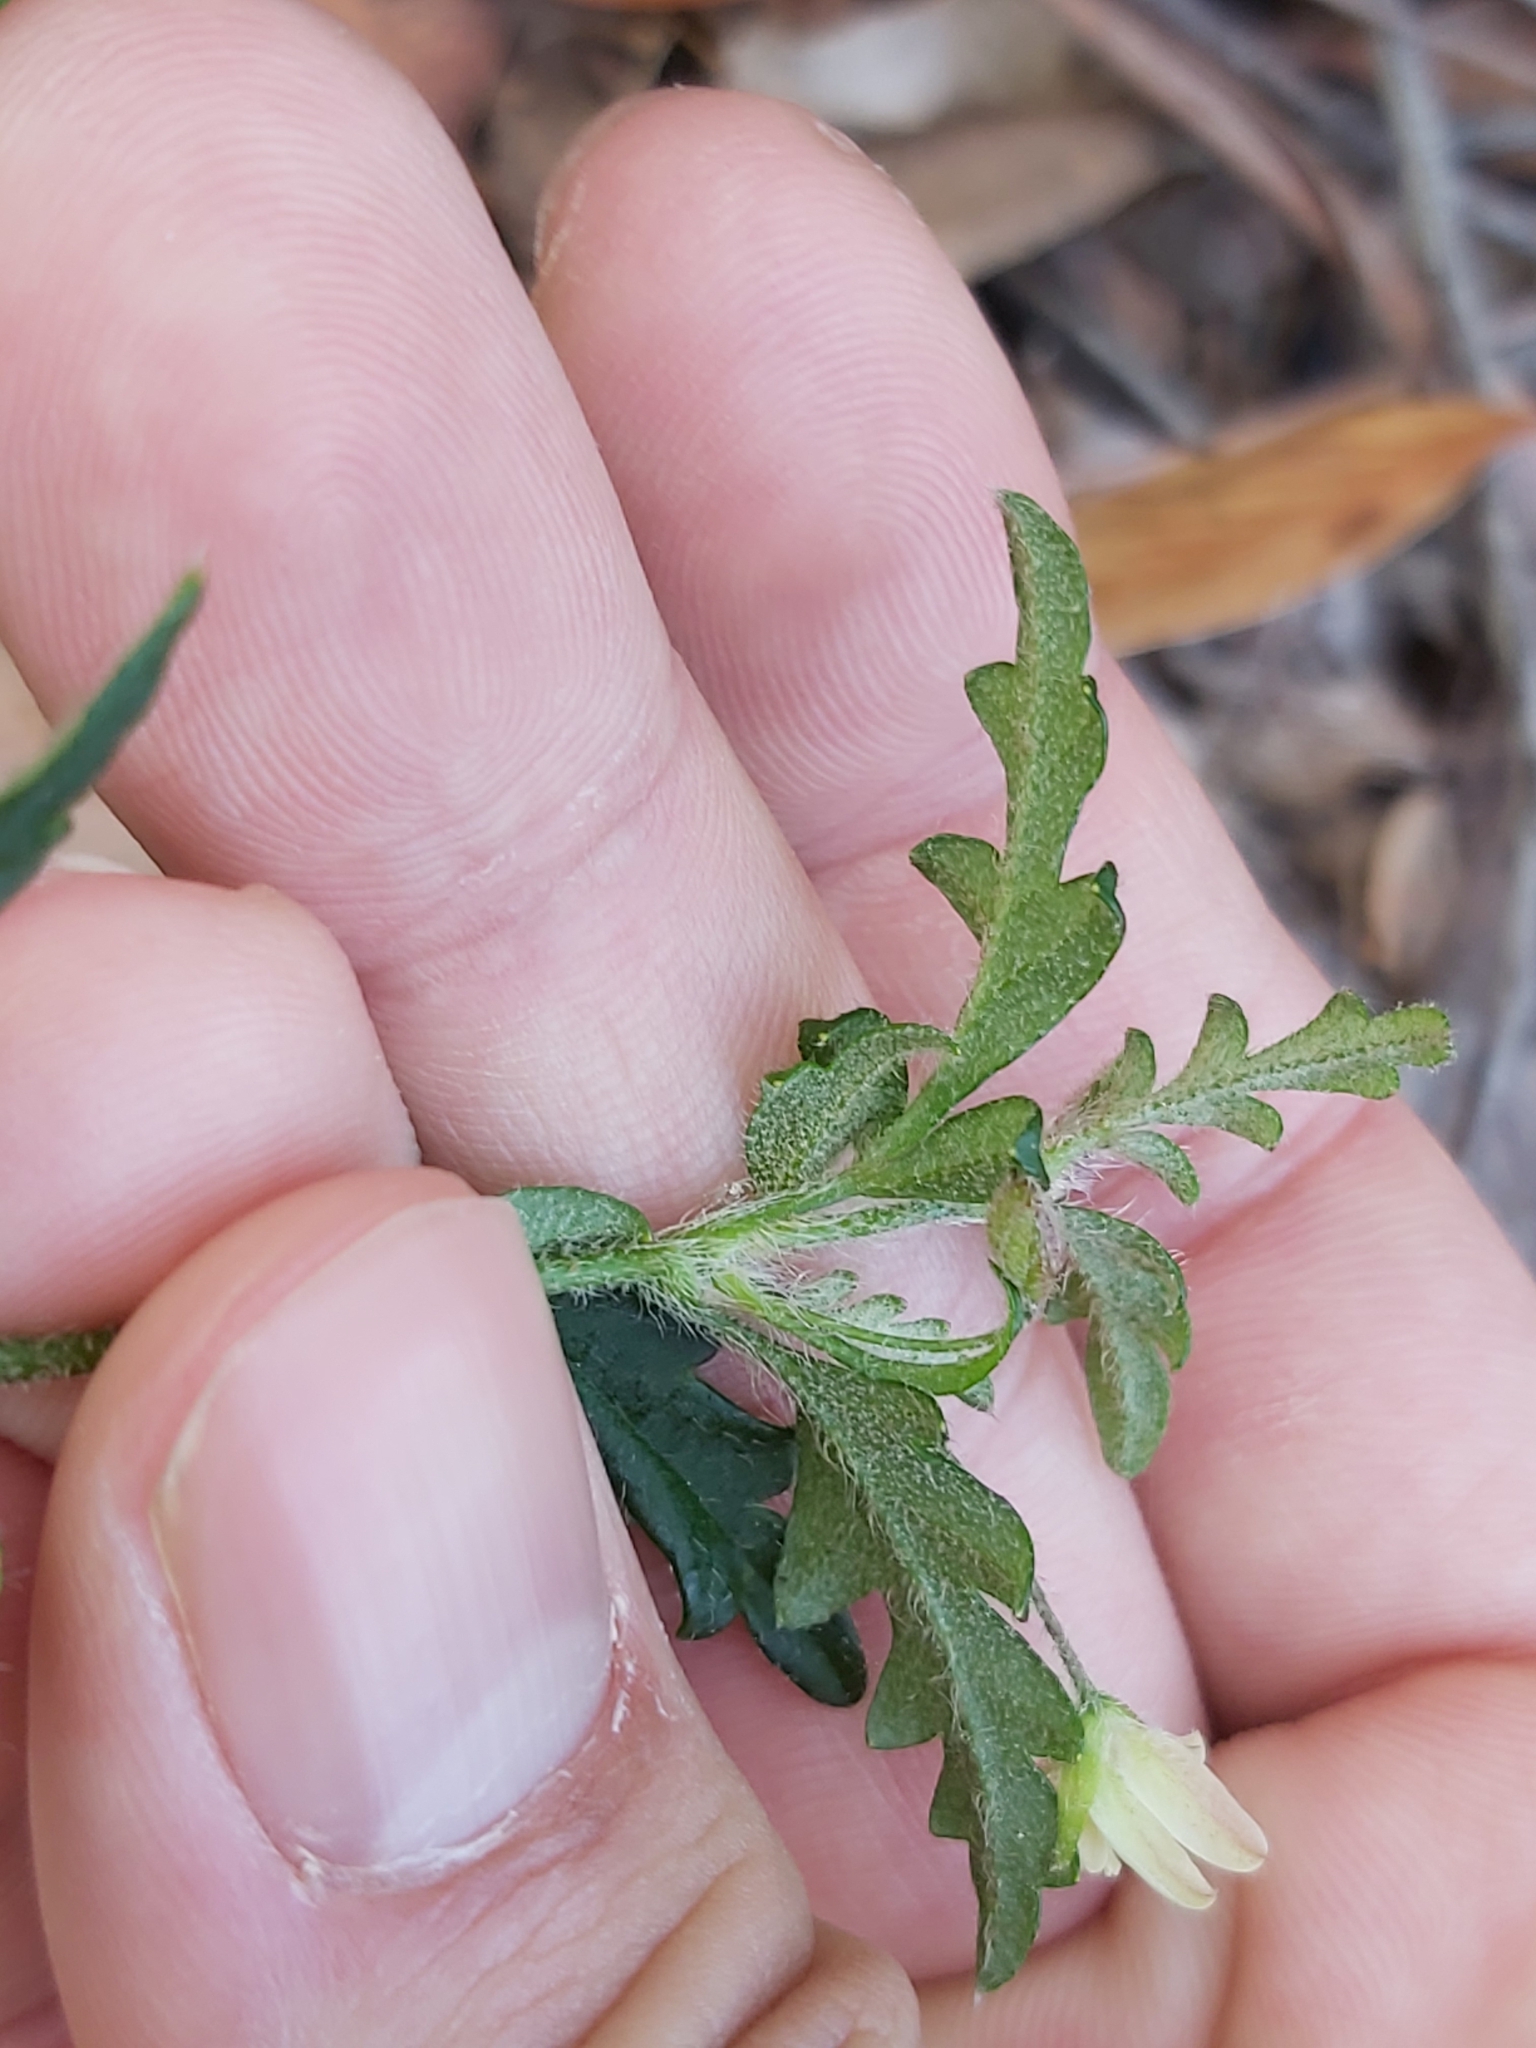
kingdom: Plantae
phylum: Tracheophyta
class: Magnoliopsida
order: Apiales
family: Apiaceae
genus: Xanthosia
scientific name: Xanthosia pilosa
